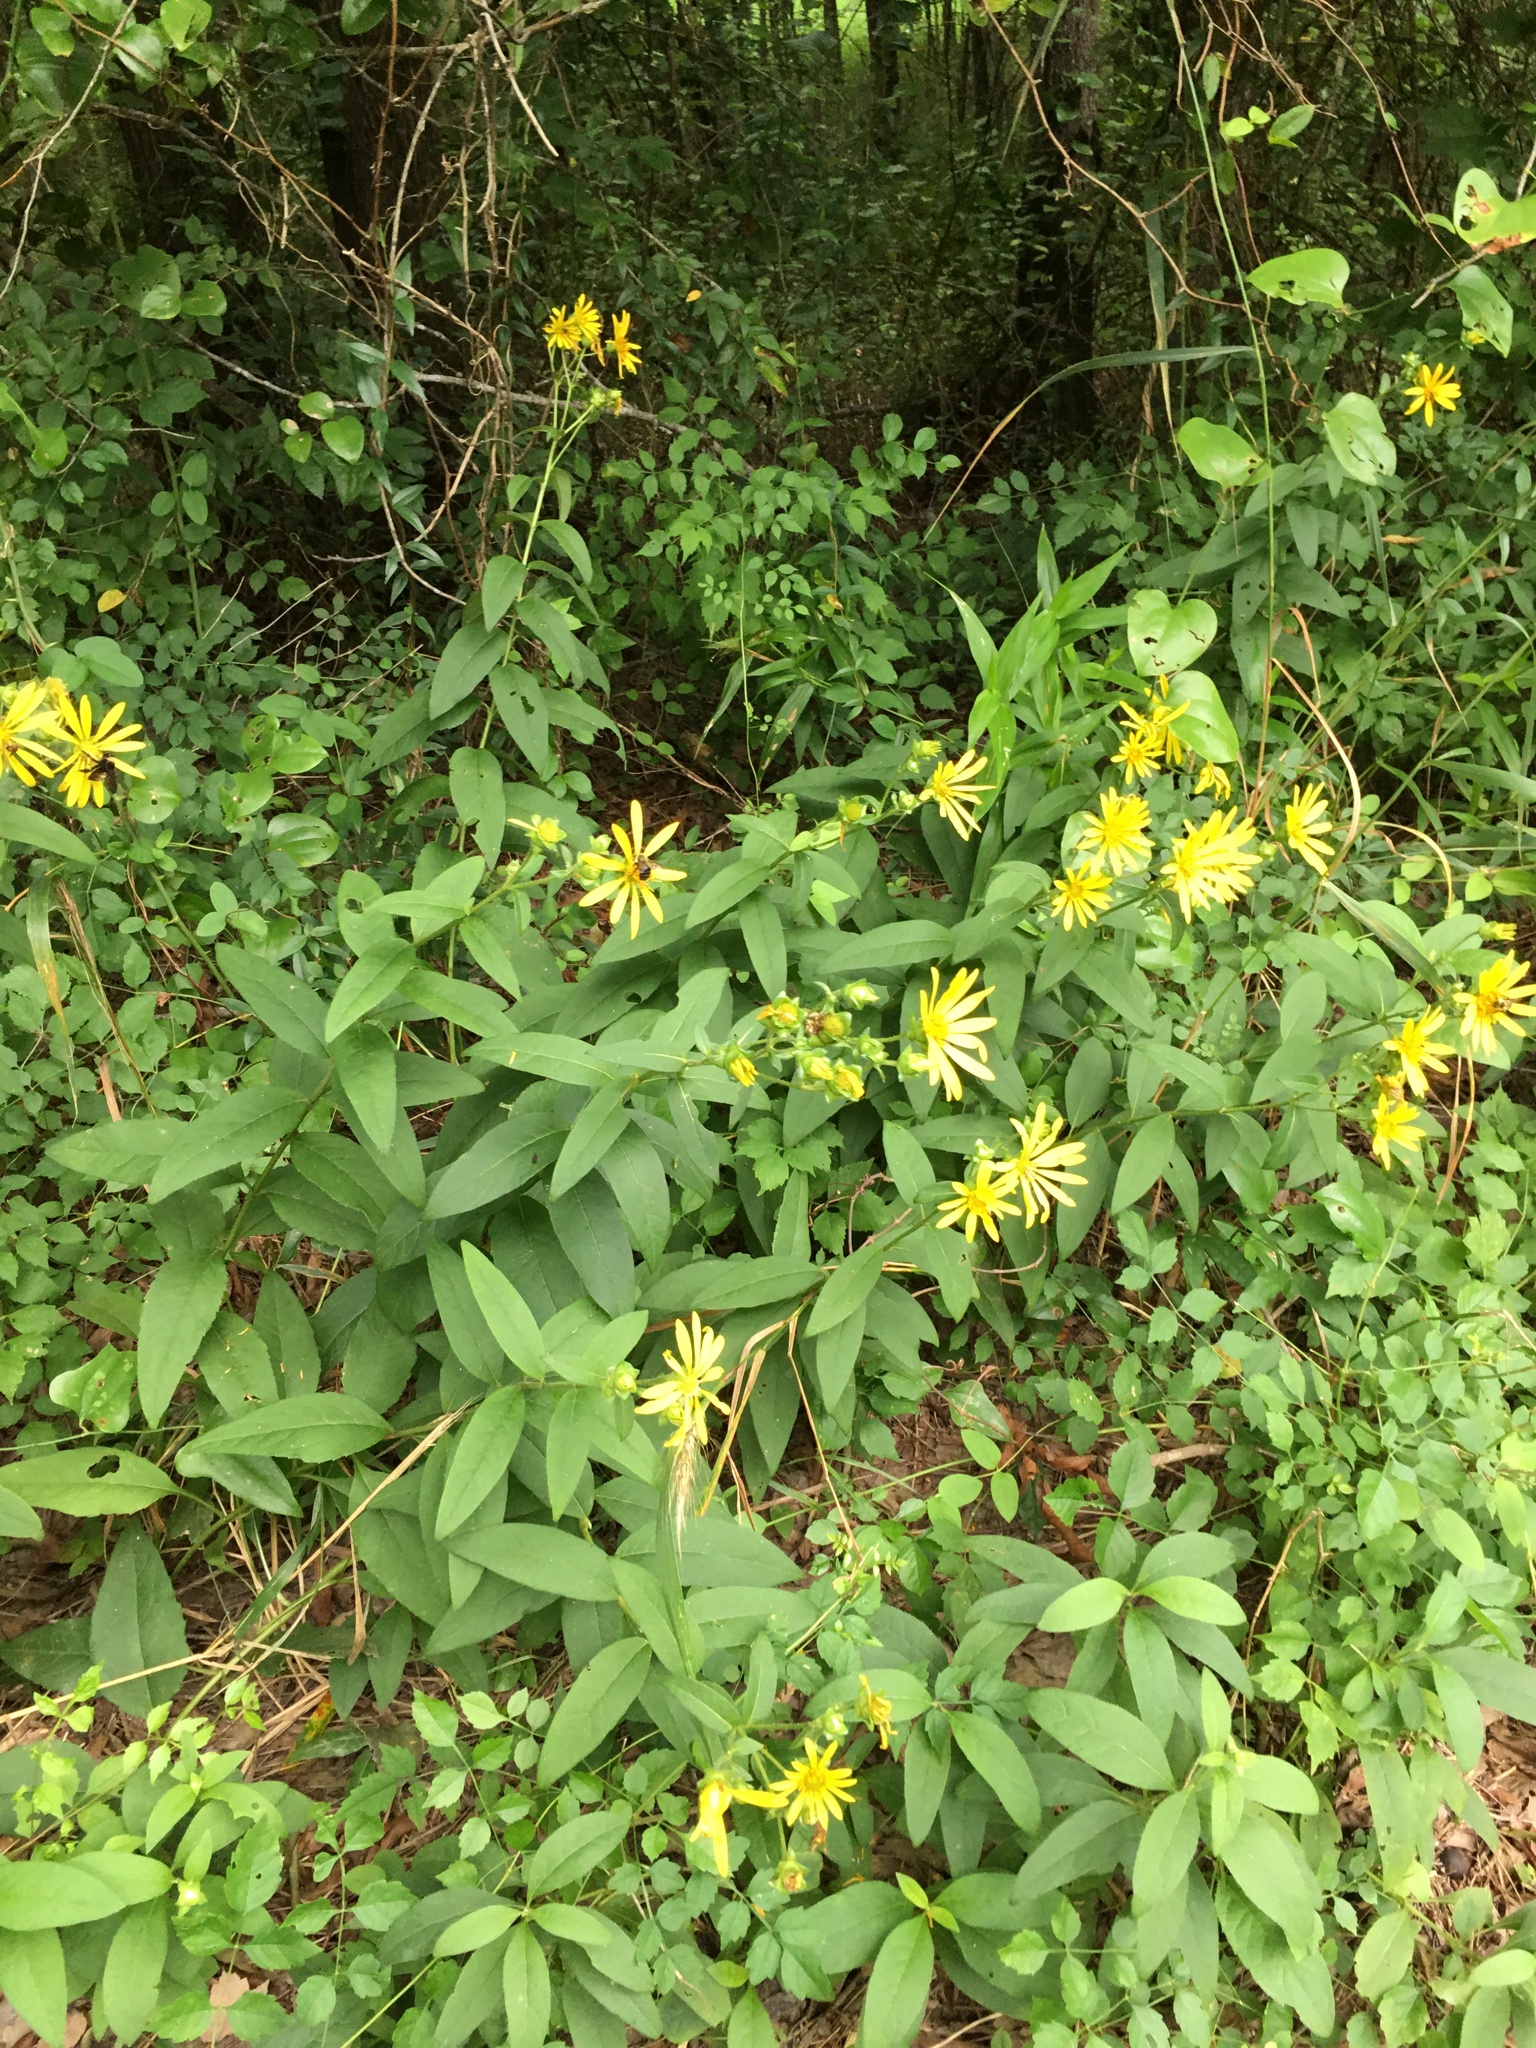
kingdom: Plantae
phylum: Tracheophyta
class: Magnoliopsida
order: Asterales
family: Asteraceae
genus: Silphium
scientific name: Silphium asteriscus
